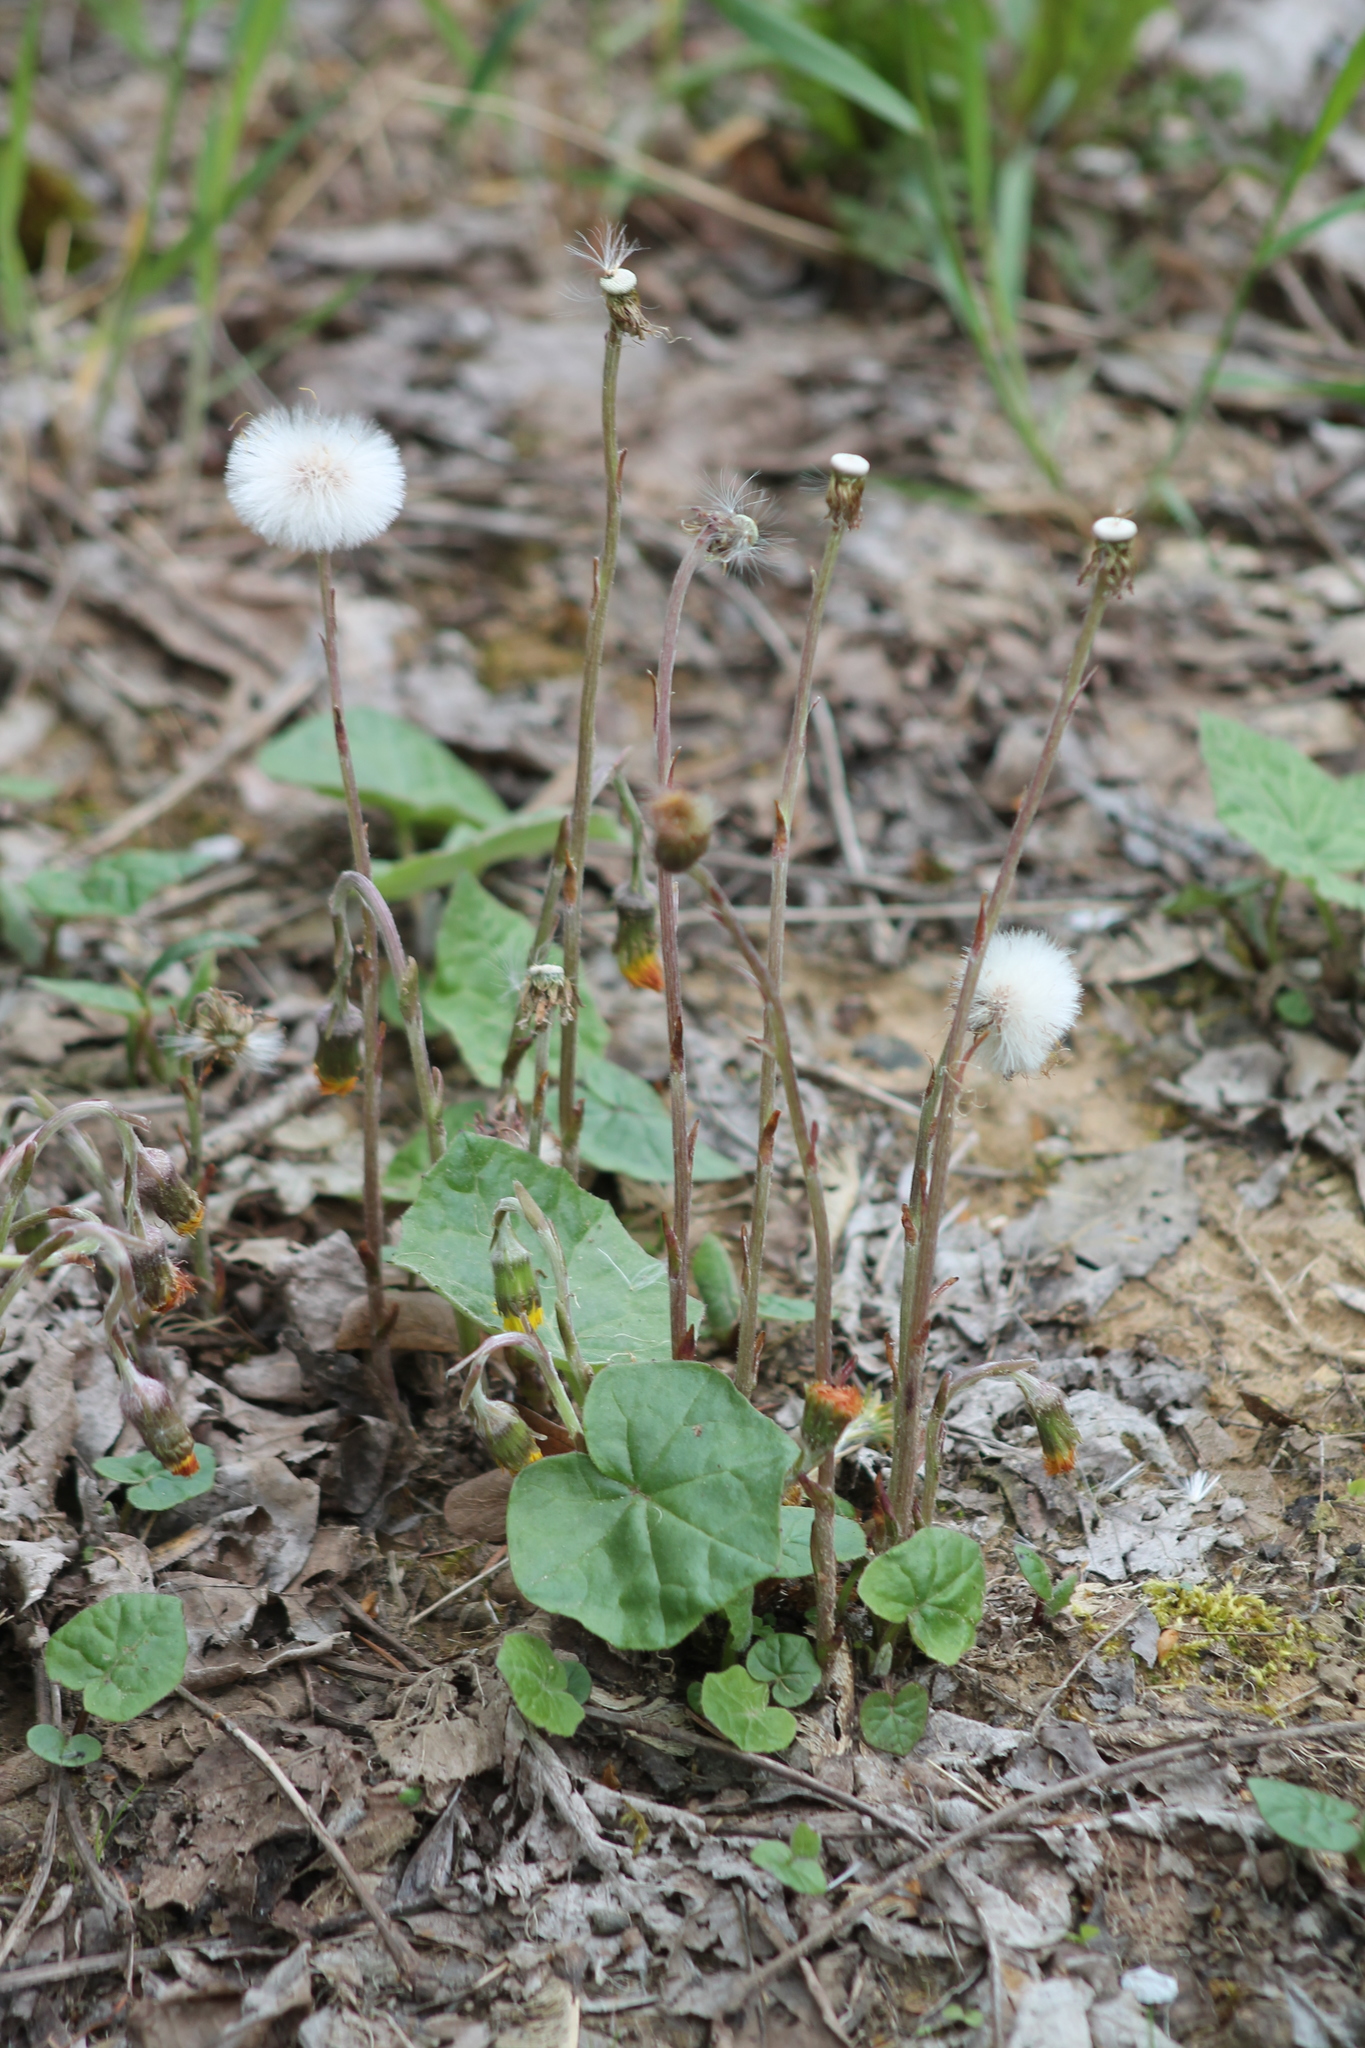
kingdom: Plantae
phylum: Tracheophyta
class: Magnoliopsida
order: Asterales
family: Asteraceae
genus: Tussilago
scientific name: Tussilago farfara
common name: Coltsfoot
